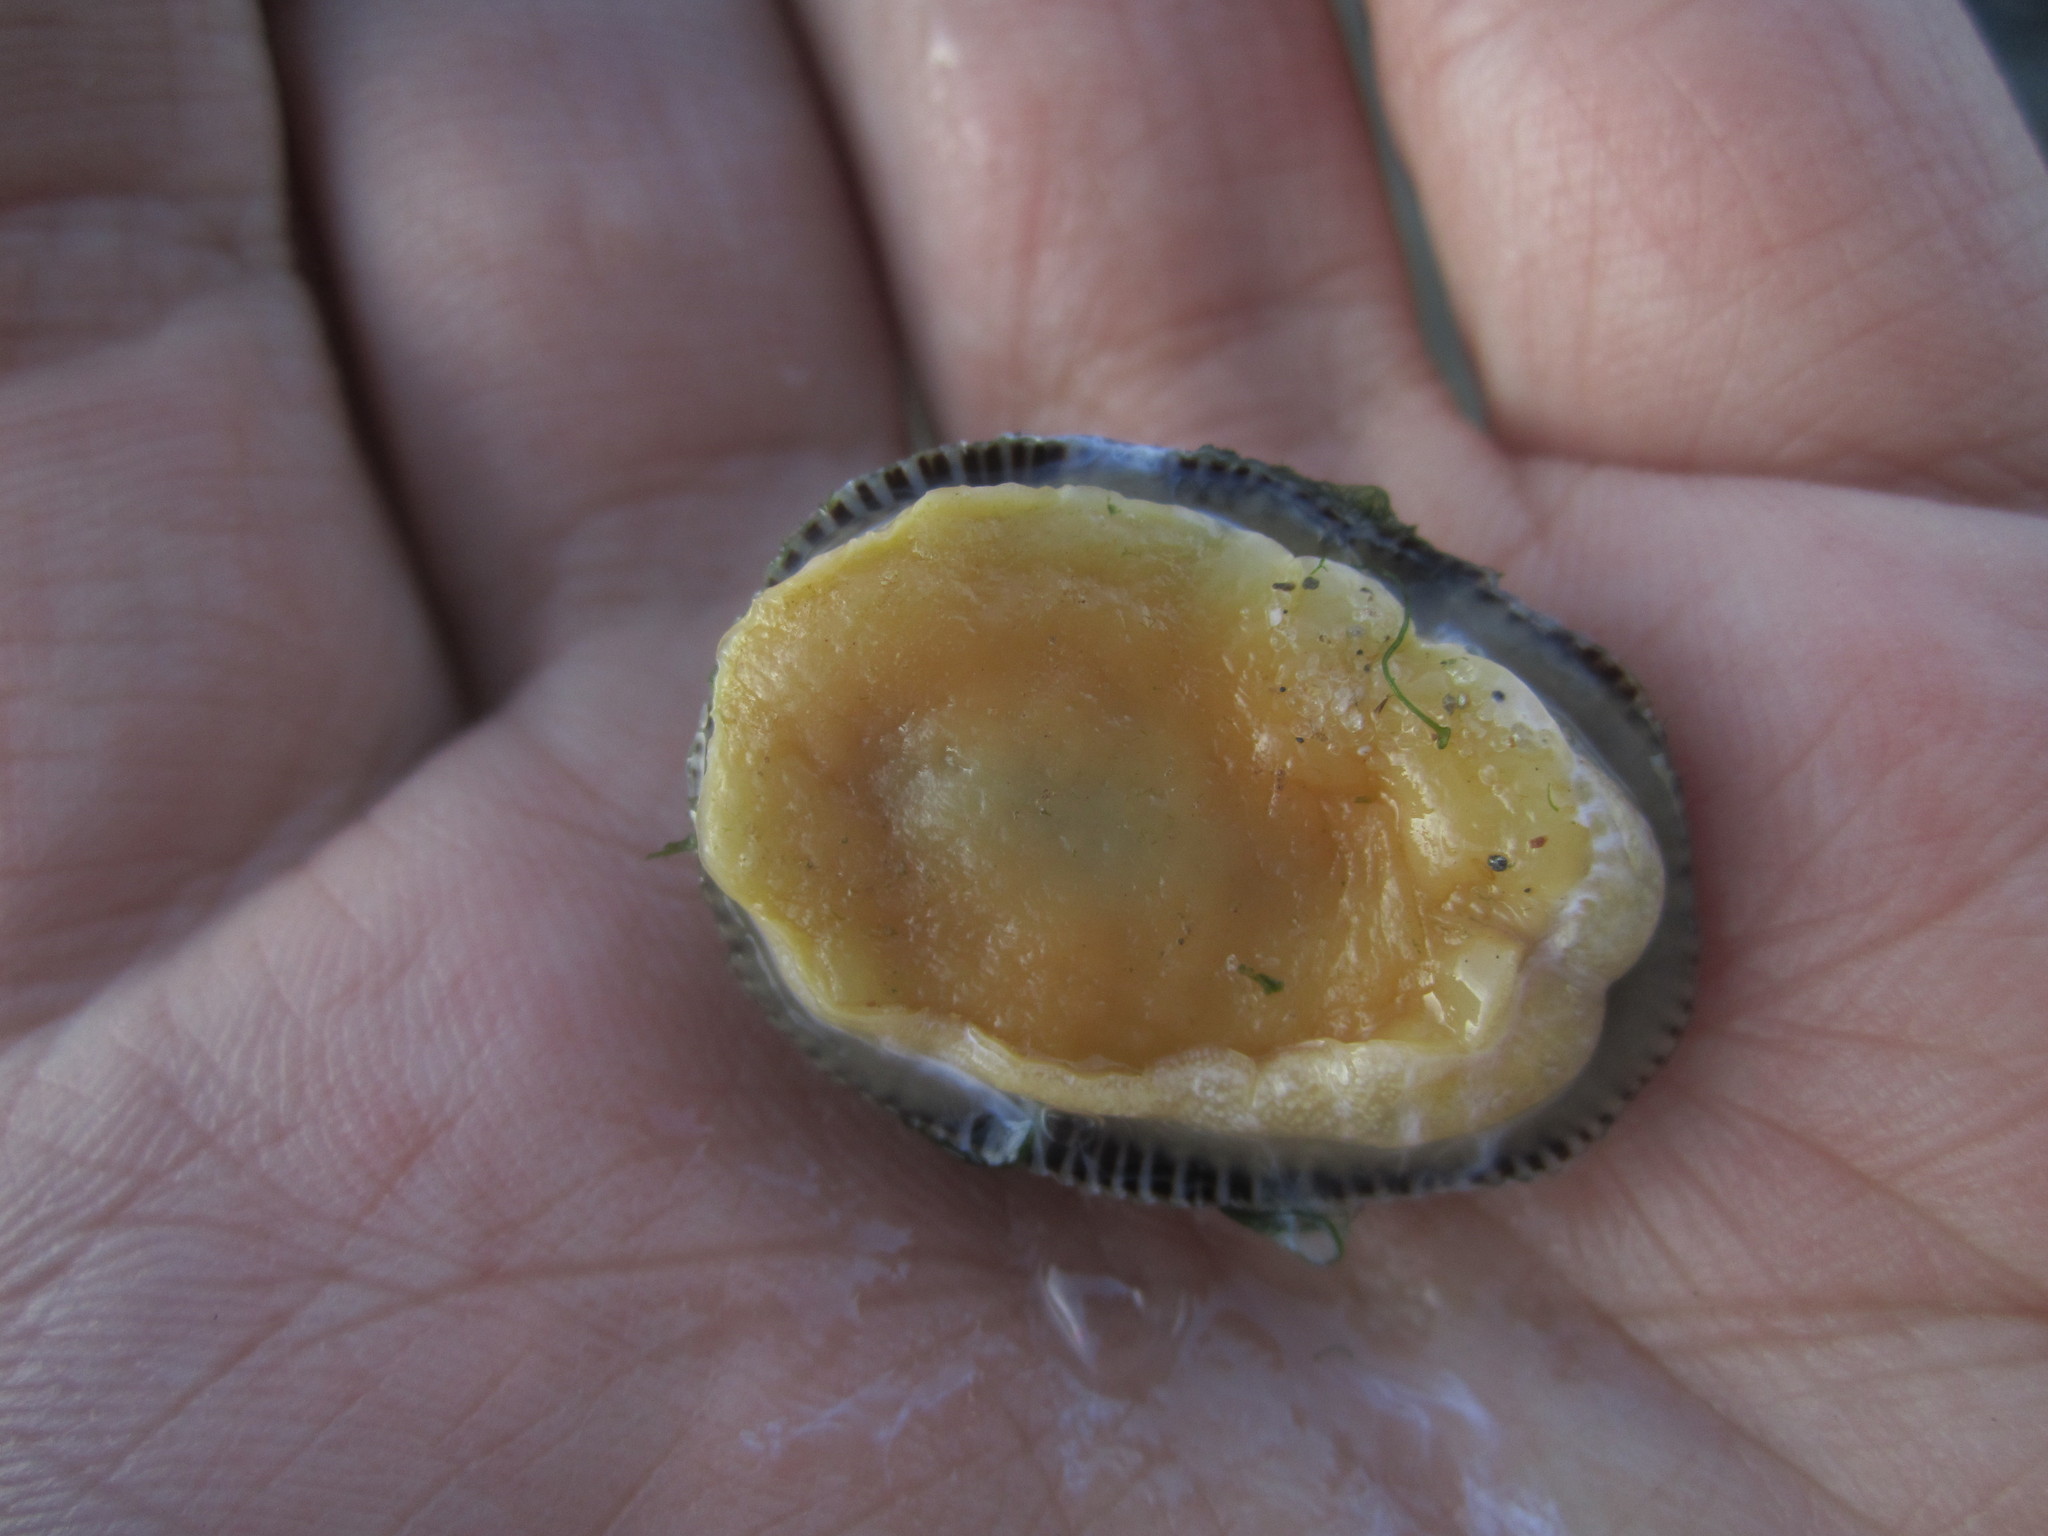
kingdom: Animalia
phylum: Mollusca
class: Gastropoda
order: Siphonariida
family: Siphonariidae
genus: Siphonaria
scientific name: Siphonaria pectinata
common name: Striped false limpet
